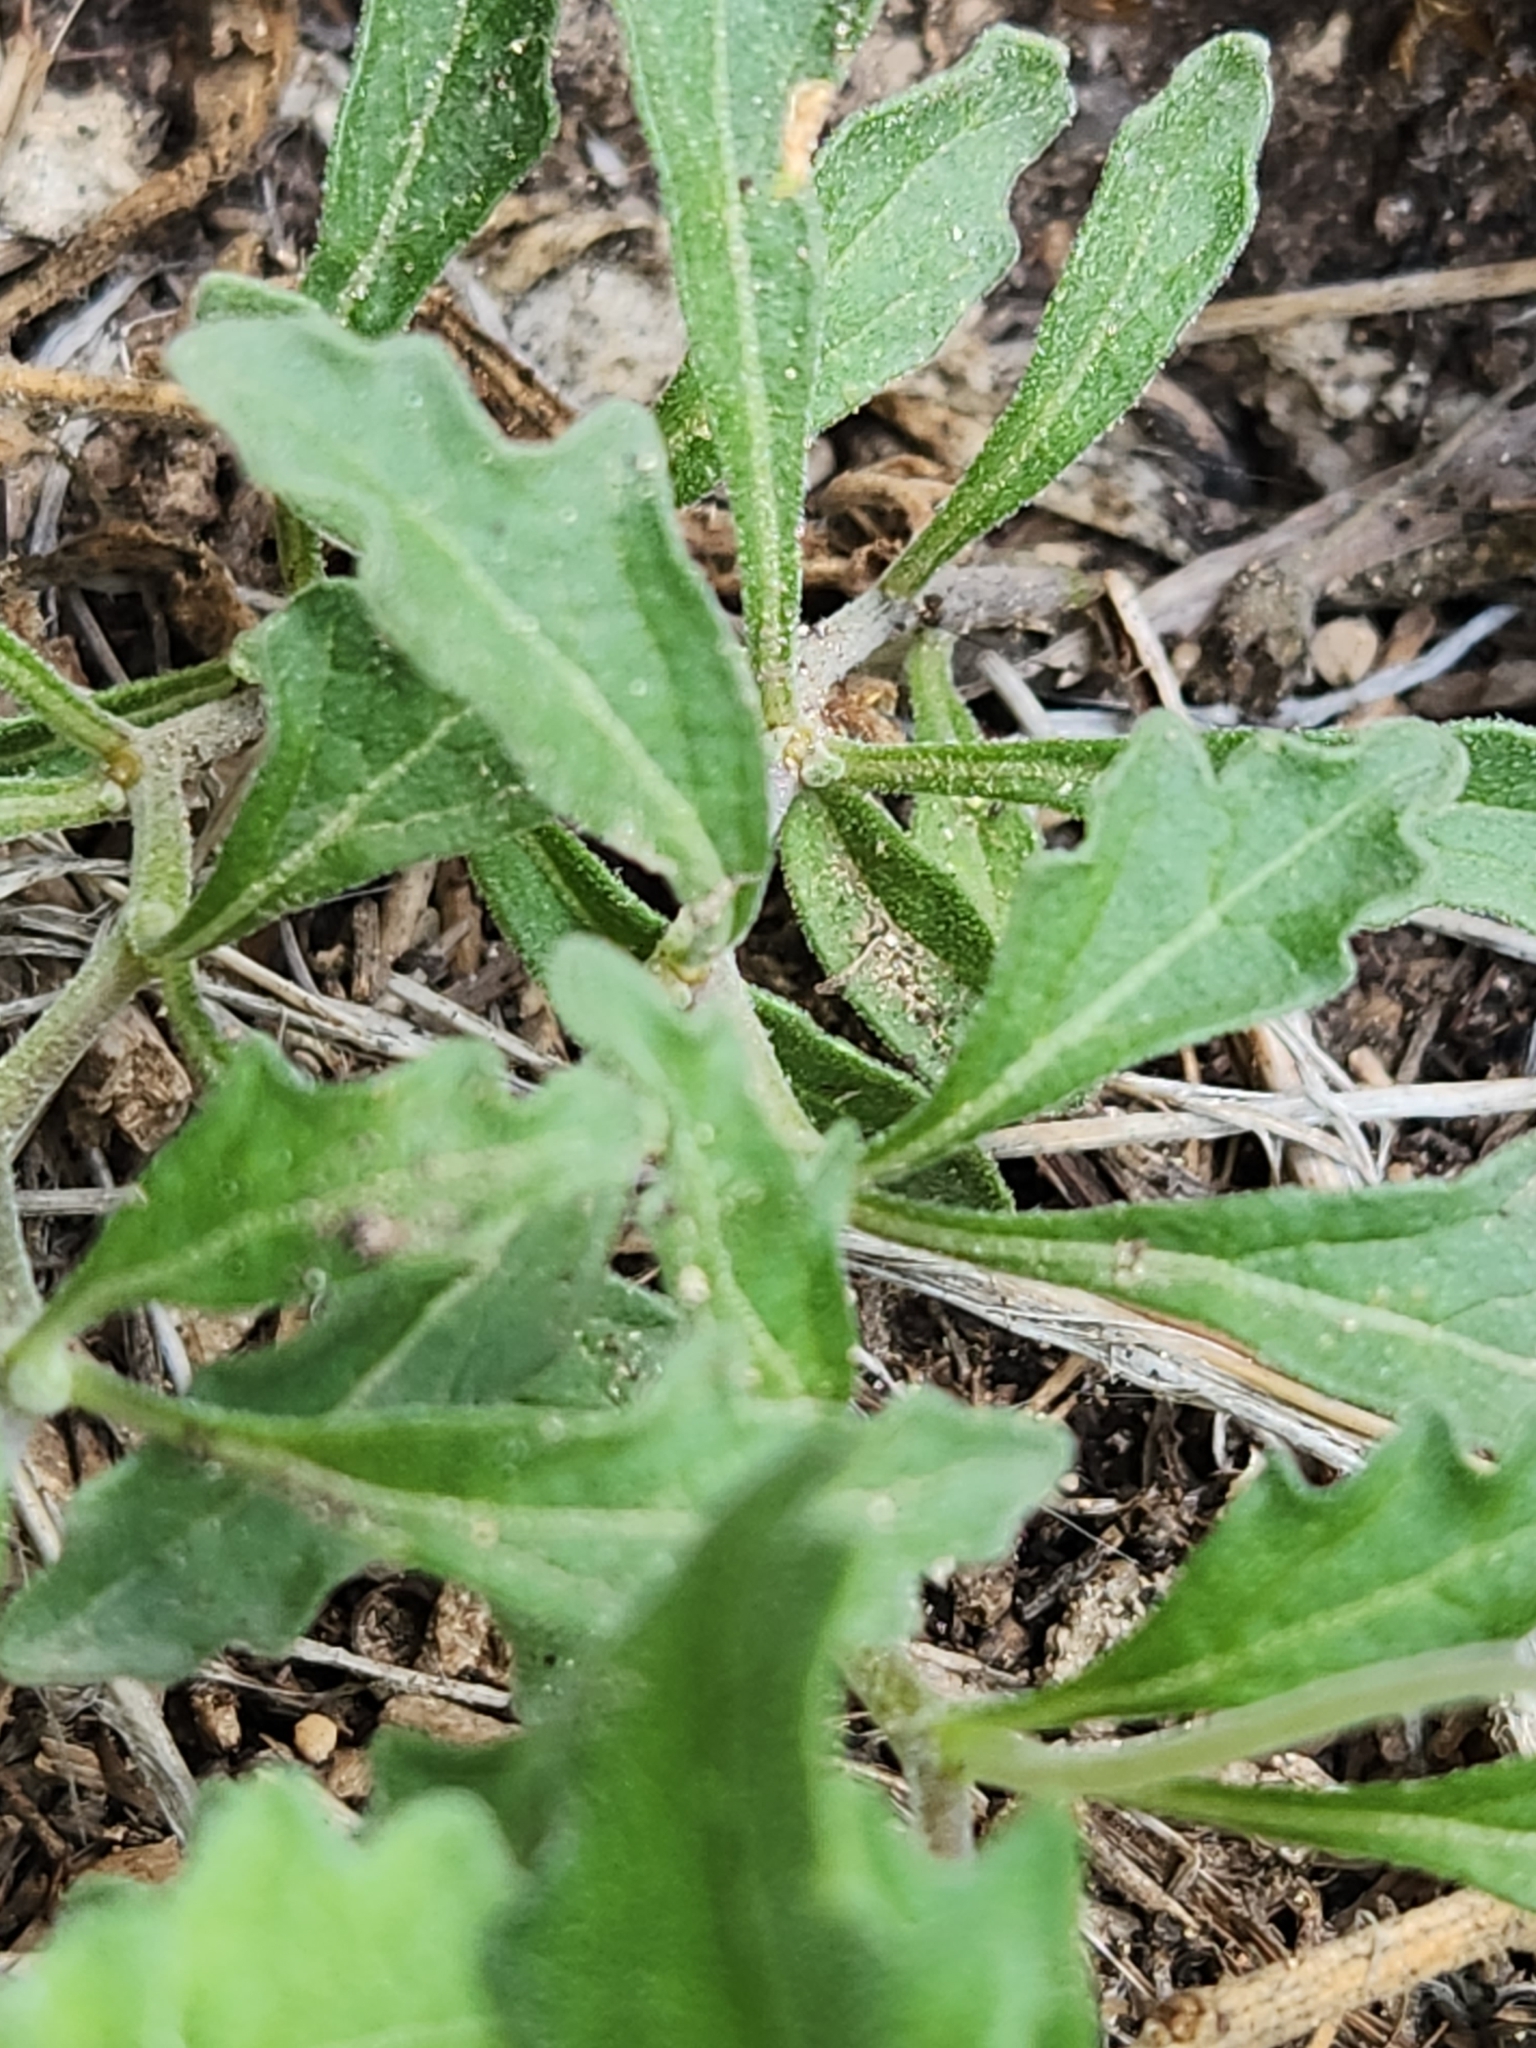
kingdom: Plantae
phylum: Tracheophyta
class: Magnoliopsida
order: Solanales
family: Solanaceae
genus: Chamaesaracha
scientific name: Chamaesaracha edwardsiana
